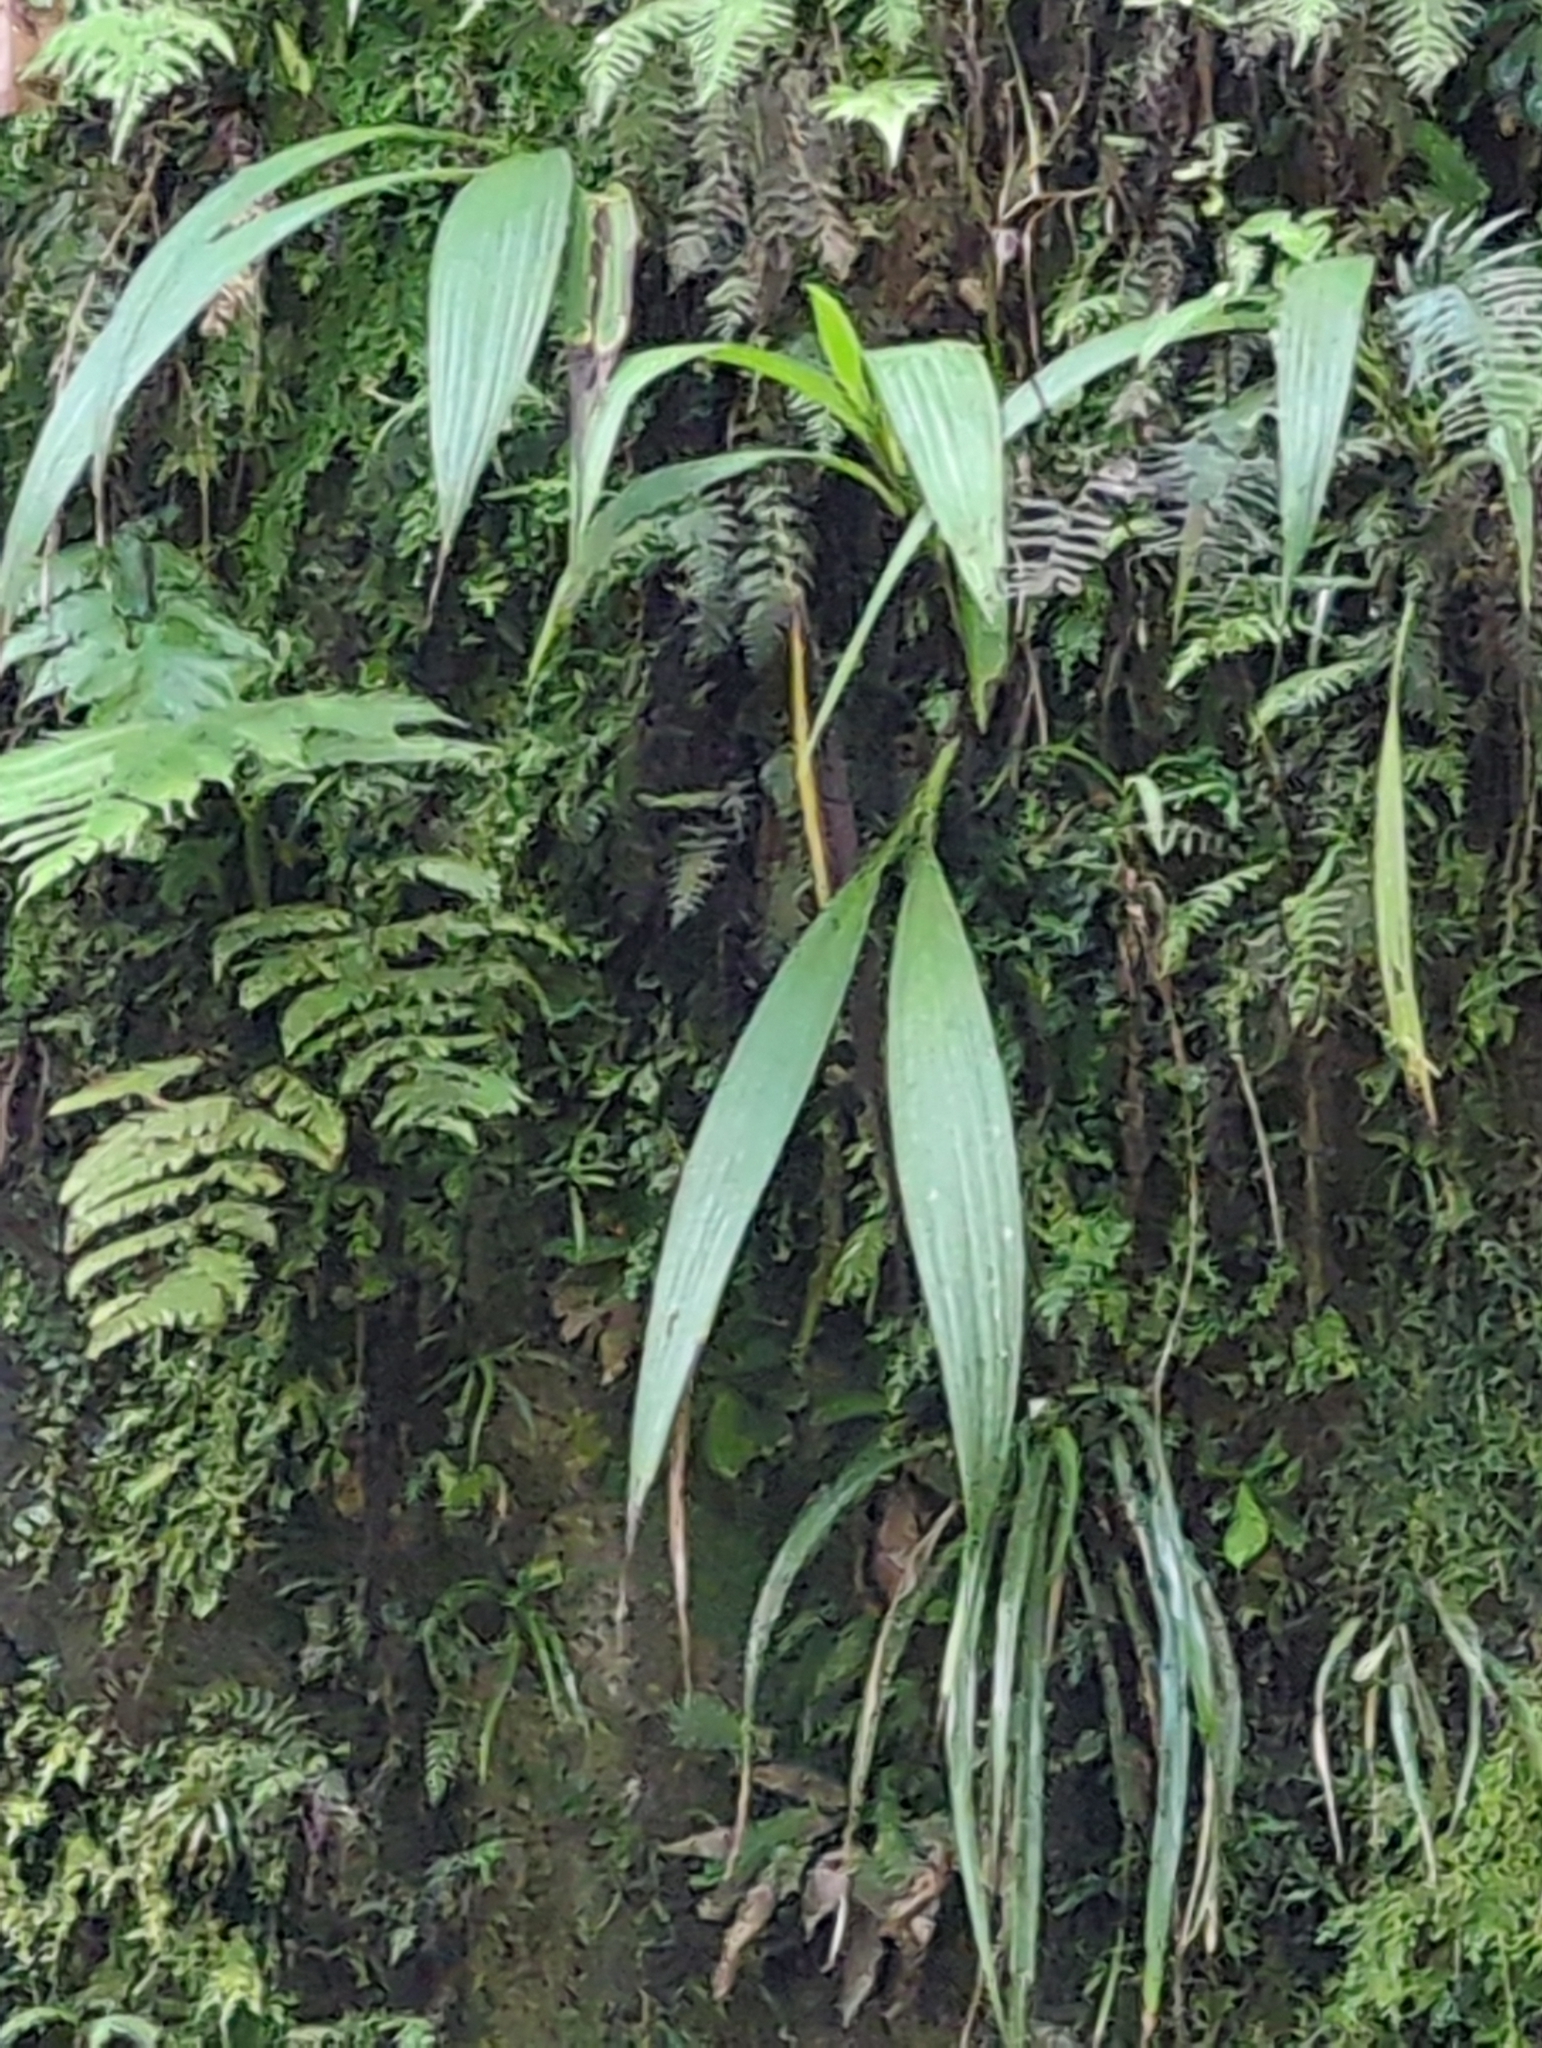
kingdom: Plantae
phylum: Tracheophyta
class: Liliopsida
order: Asparagales
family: Orchidaceae
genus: Spathoglottis
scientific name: Spathoglottis plicata
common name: Philippine ground orchid
